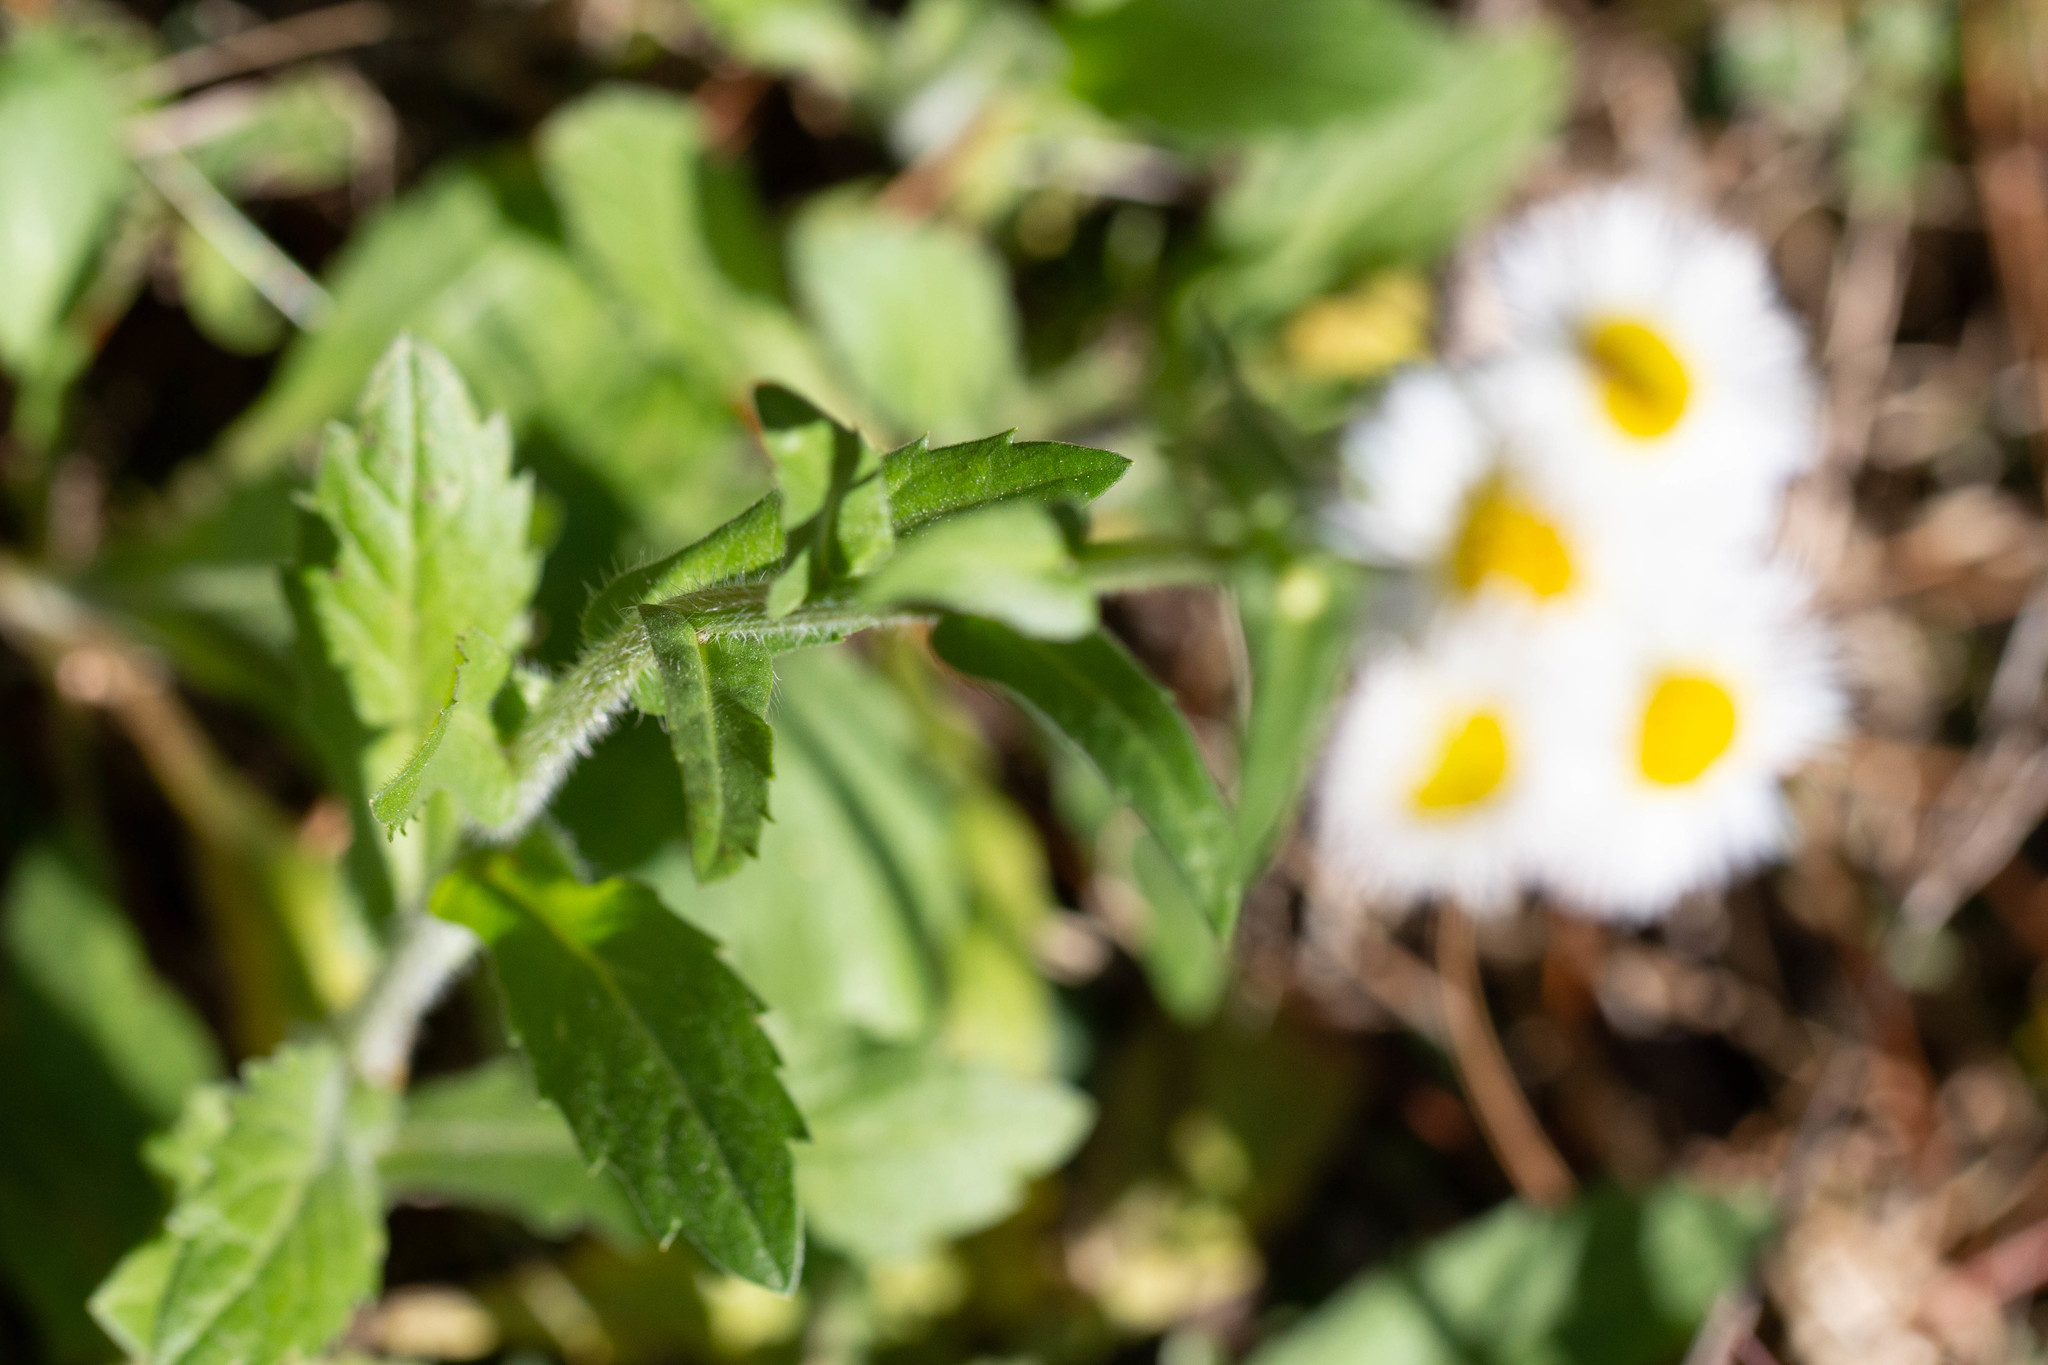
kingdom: Plantae
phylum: Tracheophyta
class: Magnoliopsida
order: Asterales
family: Asteraceae
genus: Erigeron
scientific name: Erigeron philadelphicus
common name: Robin's-plantain
